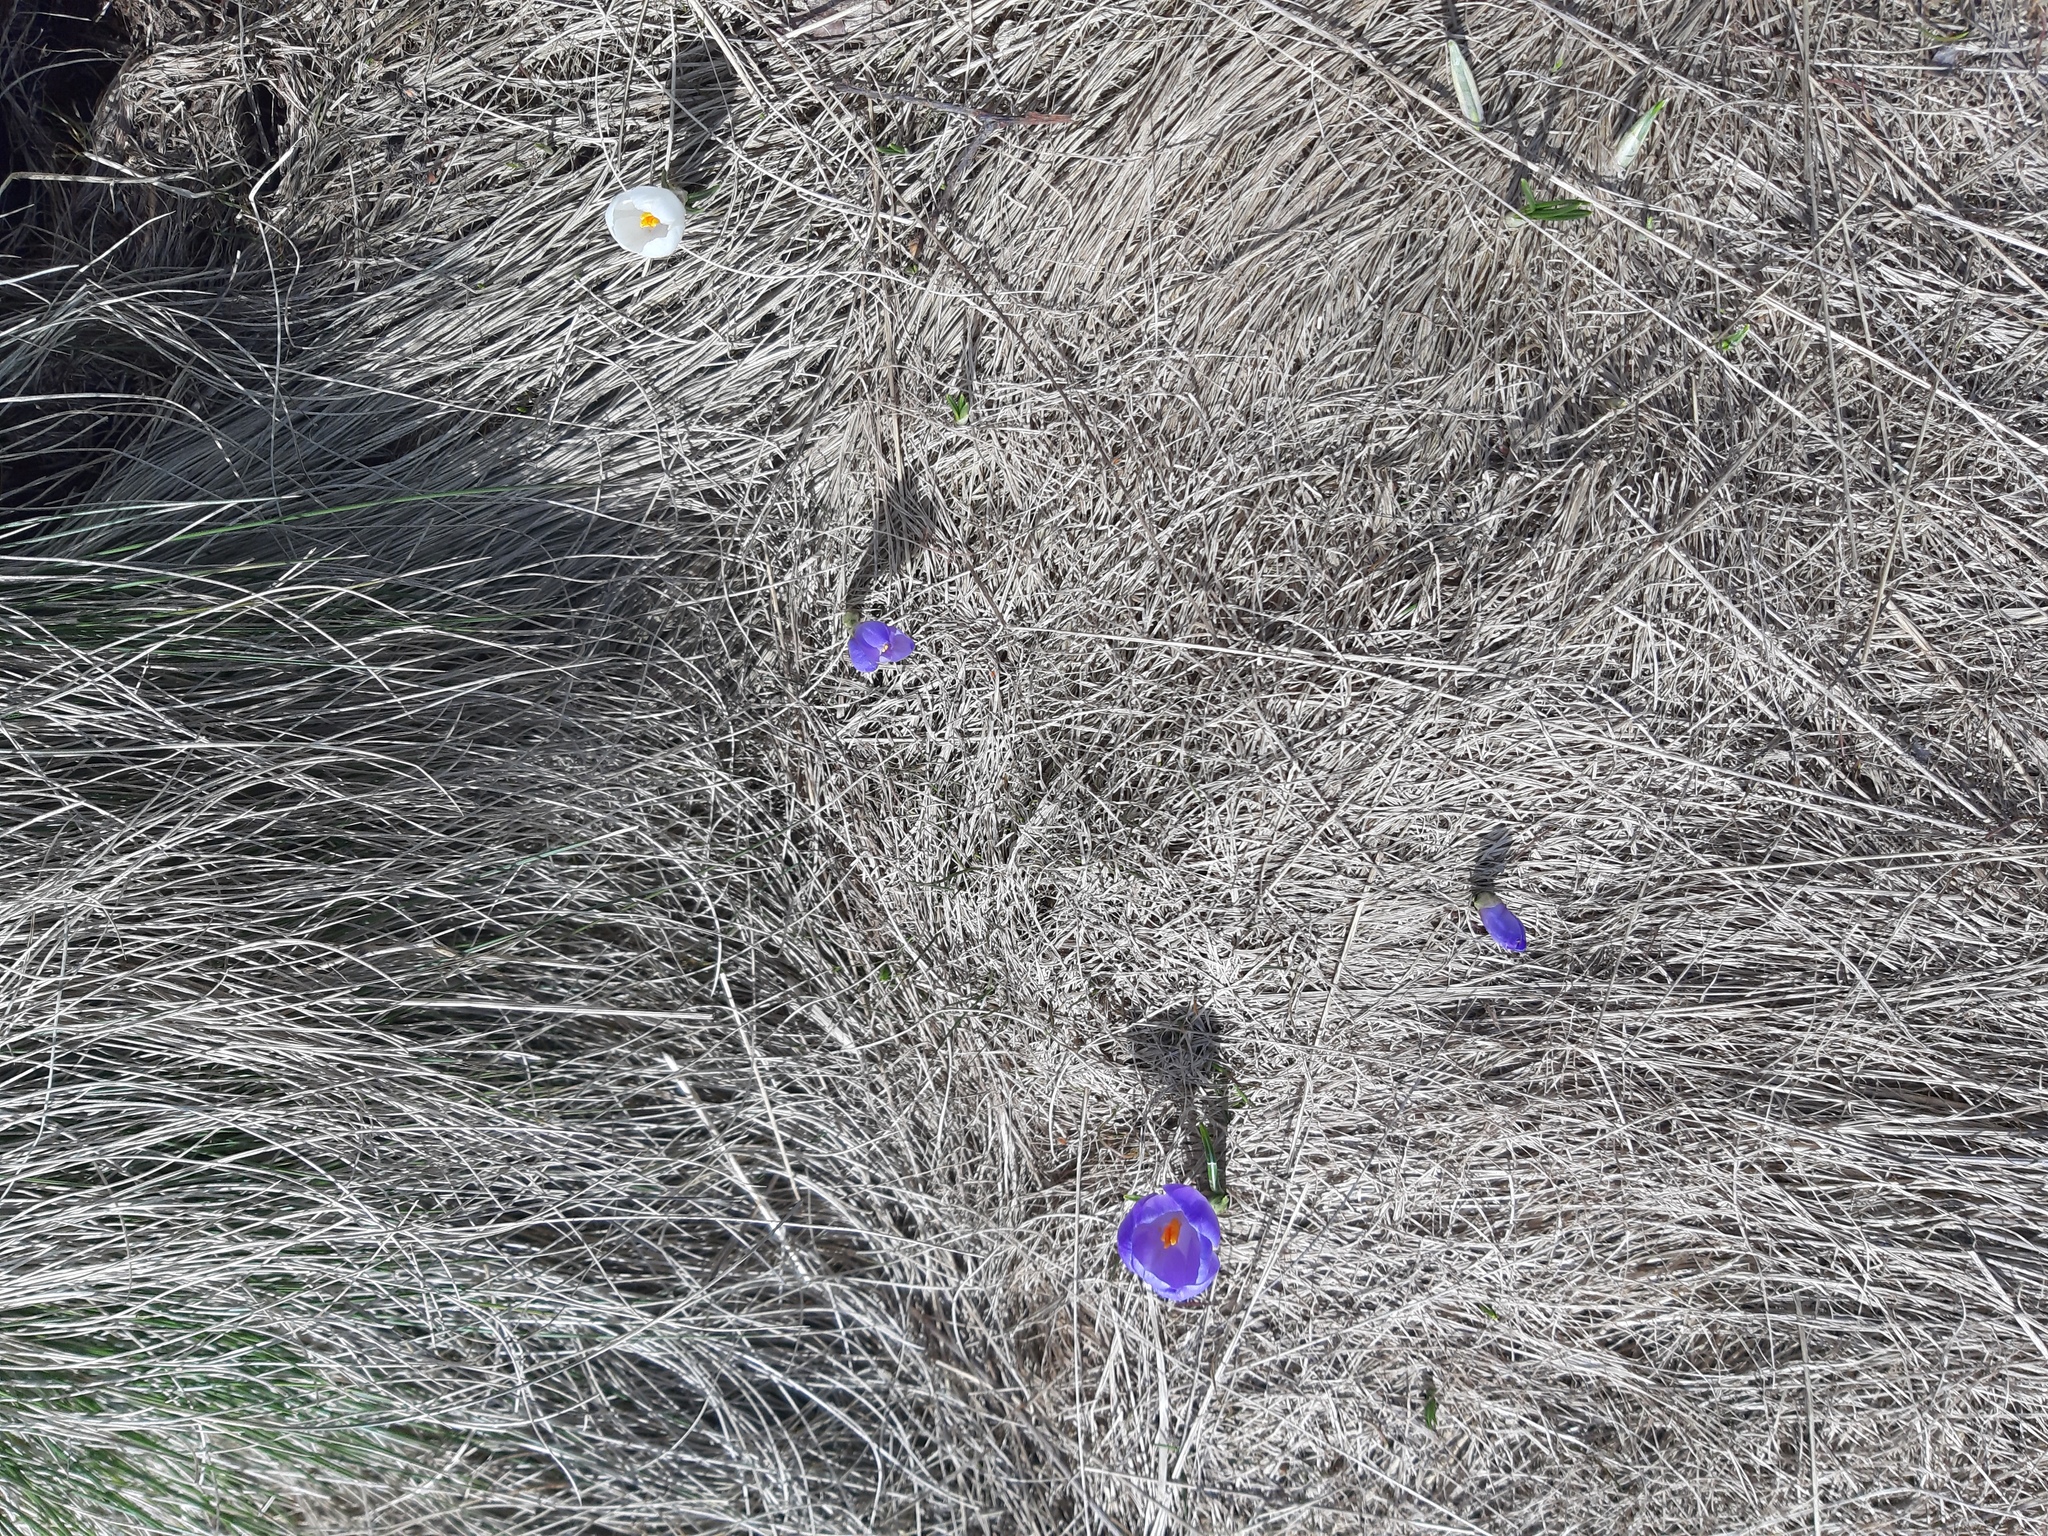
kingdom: Plantae
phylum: Tracheophyta
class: Liliopsida
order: Asparagales
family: Iridaceae
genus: Crocus
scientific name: Crocus vernus
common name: Spring crocus
